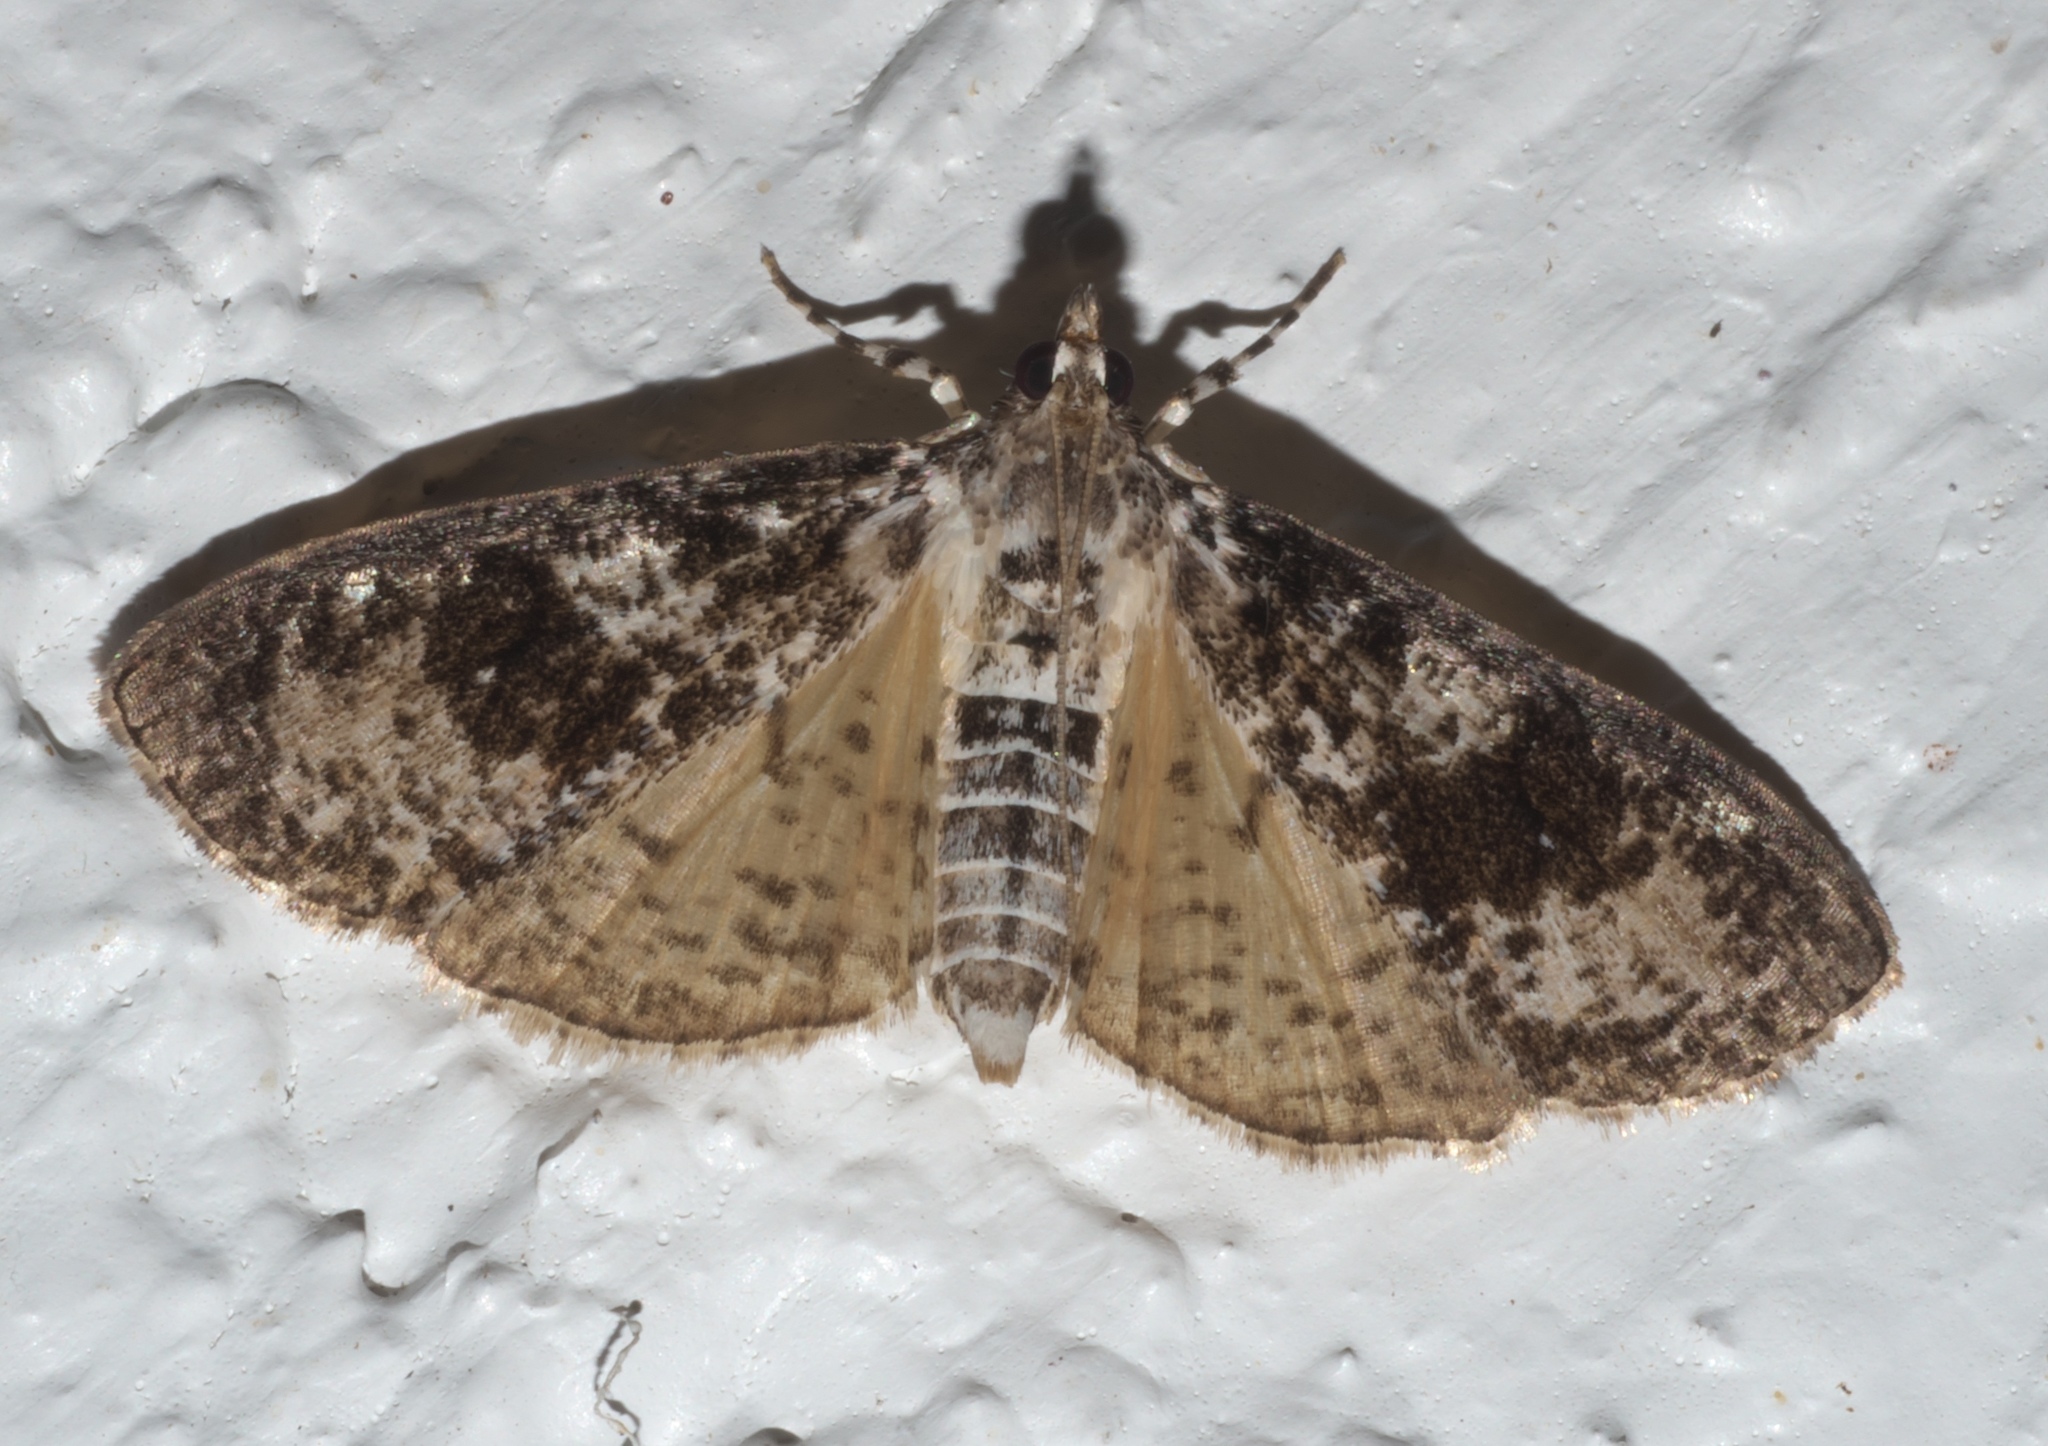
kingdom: Animalia
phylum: Arthropoda
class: Insecta
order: Lepidoptera
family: Crambidae
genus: Palpita
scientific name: Palpita magniferalis
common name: Splendid palpita moth
